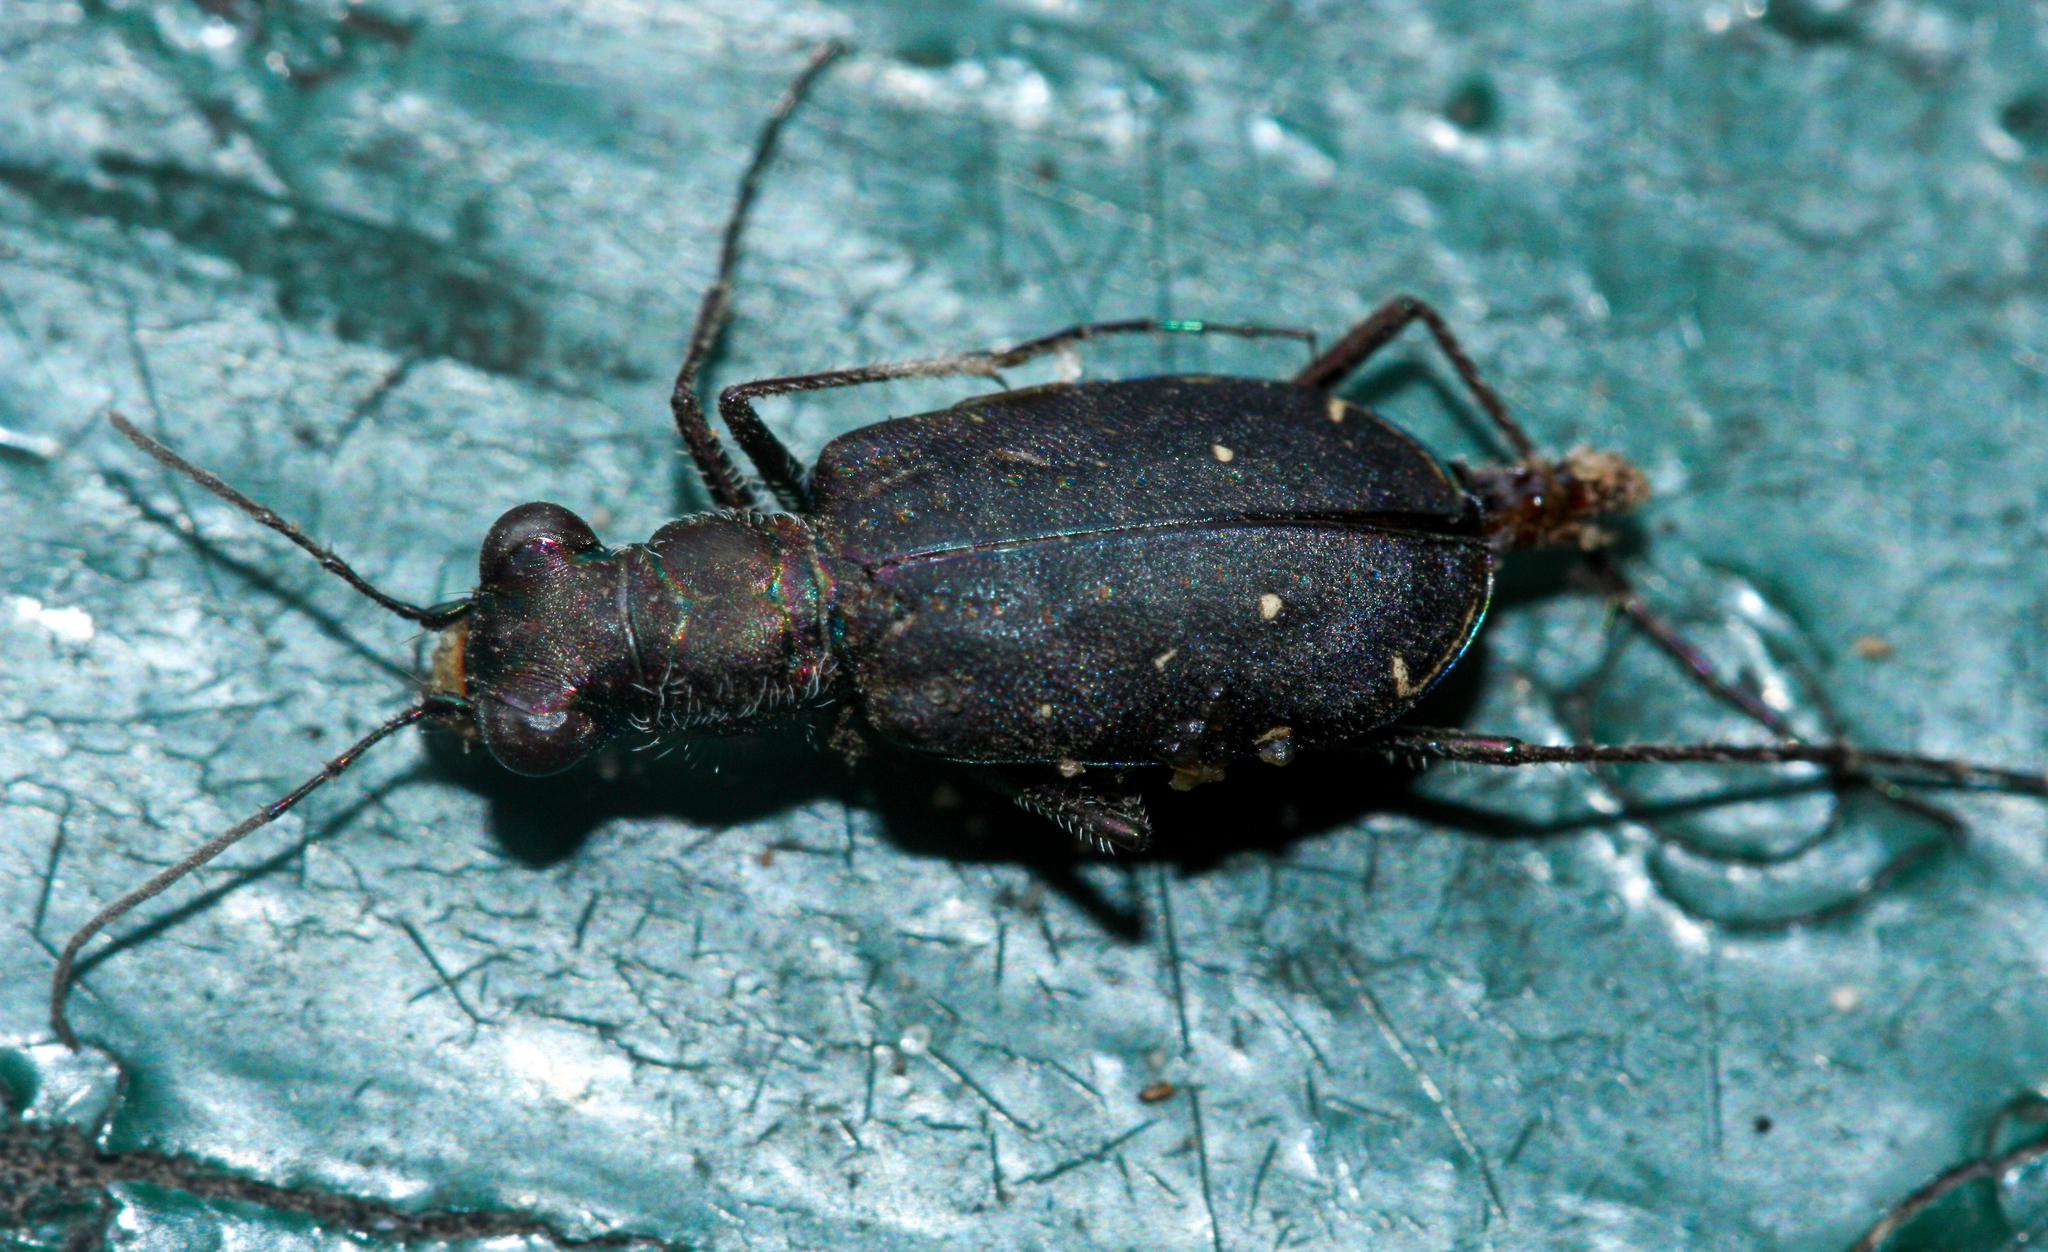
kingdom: Animalia
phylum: Arthropoda
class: Insecta
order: Coleoptera
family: Carabidae
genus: Cicindela
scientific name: Cicindela punctulata
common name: Punctured tiger beetle
